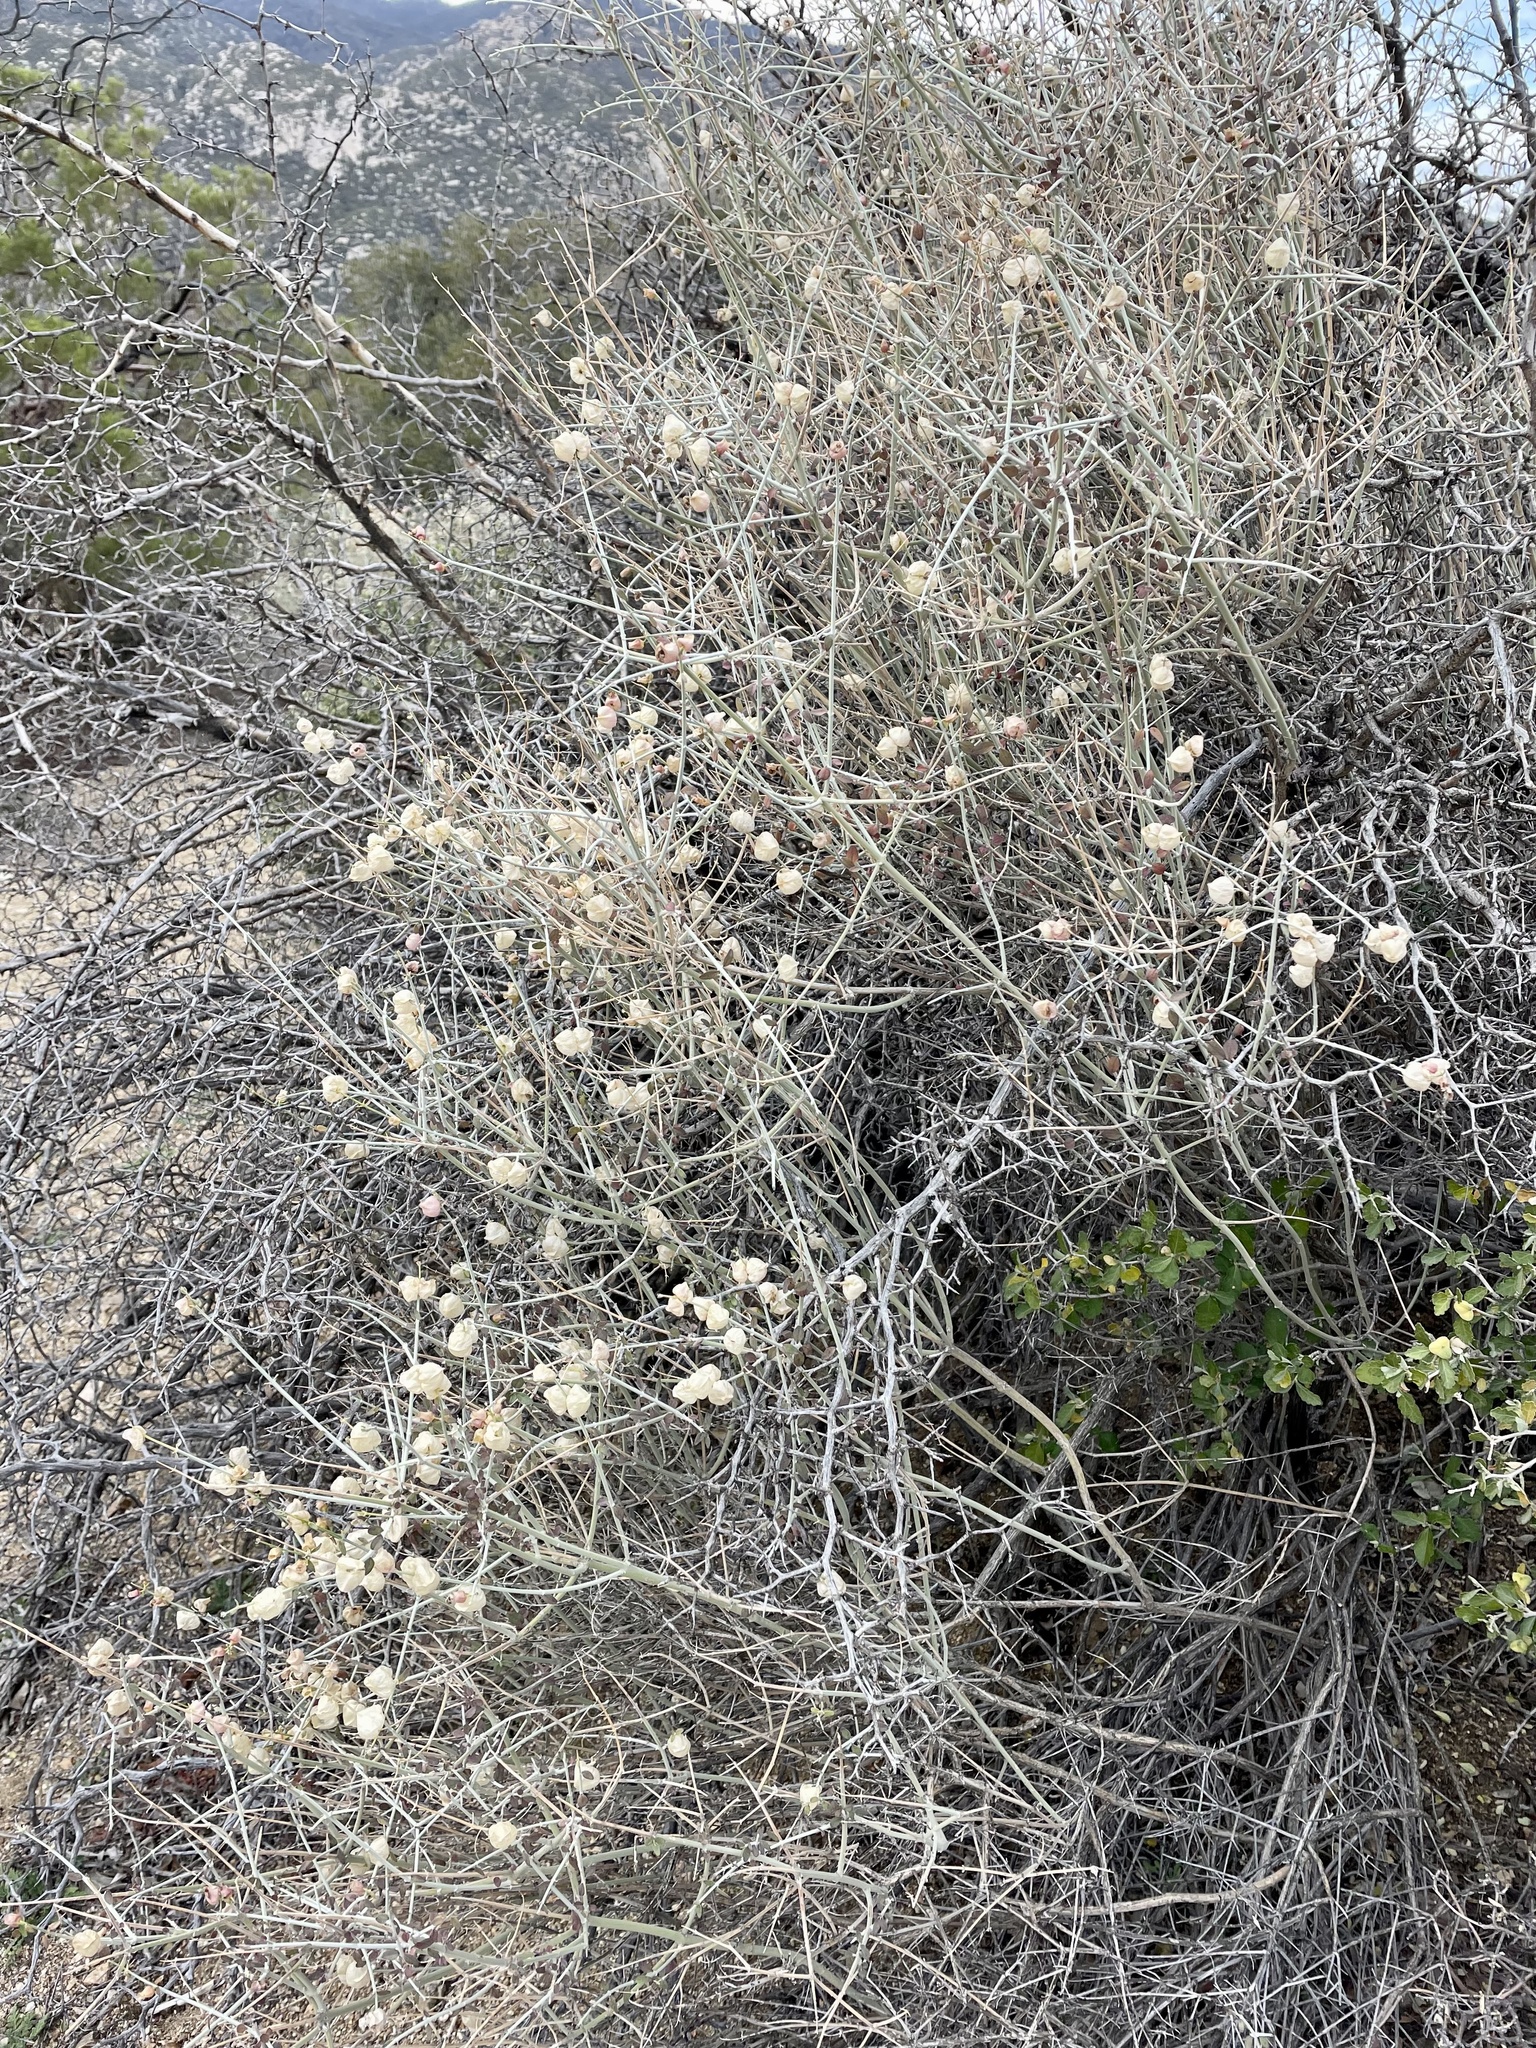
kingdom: Plantae
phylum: Tracheophyta
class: Magnoliopsida
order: Lamiales
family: Lamiaceae
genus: Scutellaria
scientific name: Scutellaria mexicana
